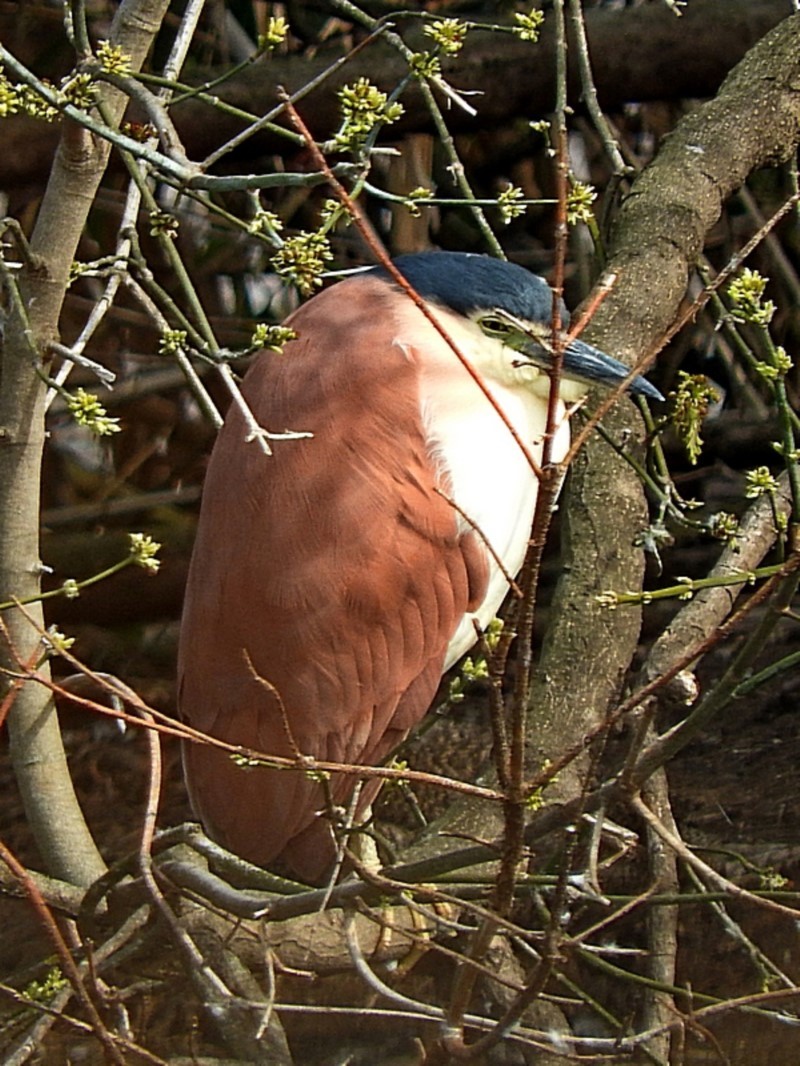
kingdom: Animalia
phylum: Chordata
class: Aves
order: Pelecaniformes
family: Ardeidae
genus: Nycticorax
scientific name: Nycticorax caledonicus
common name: Rufous night-heron
